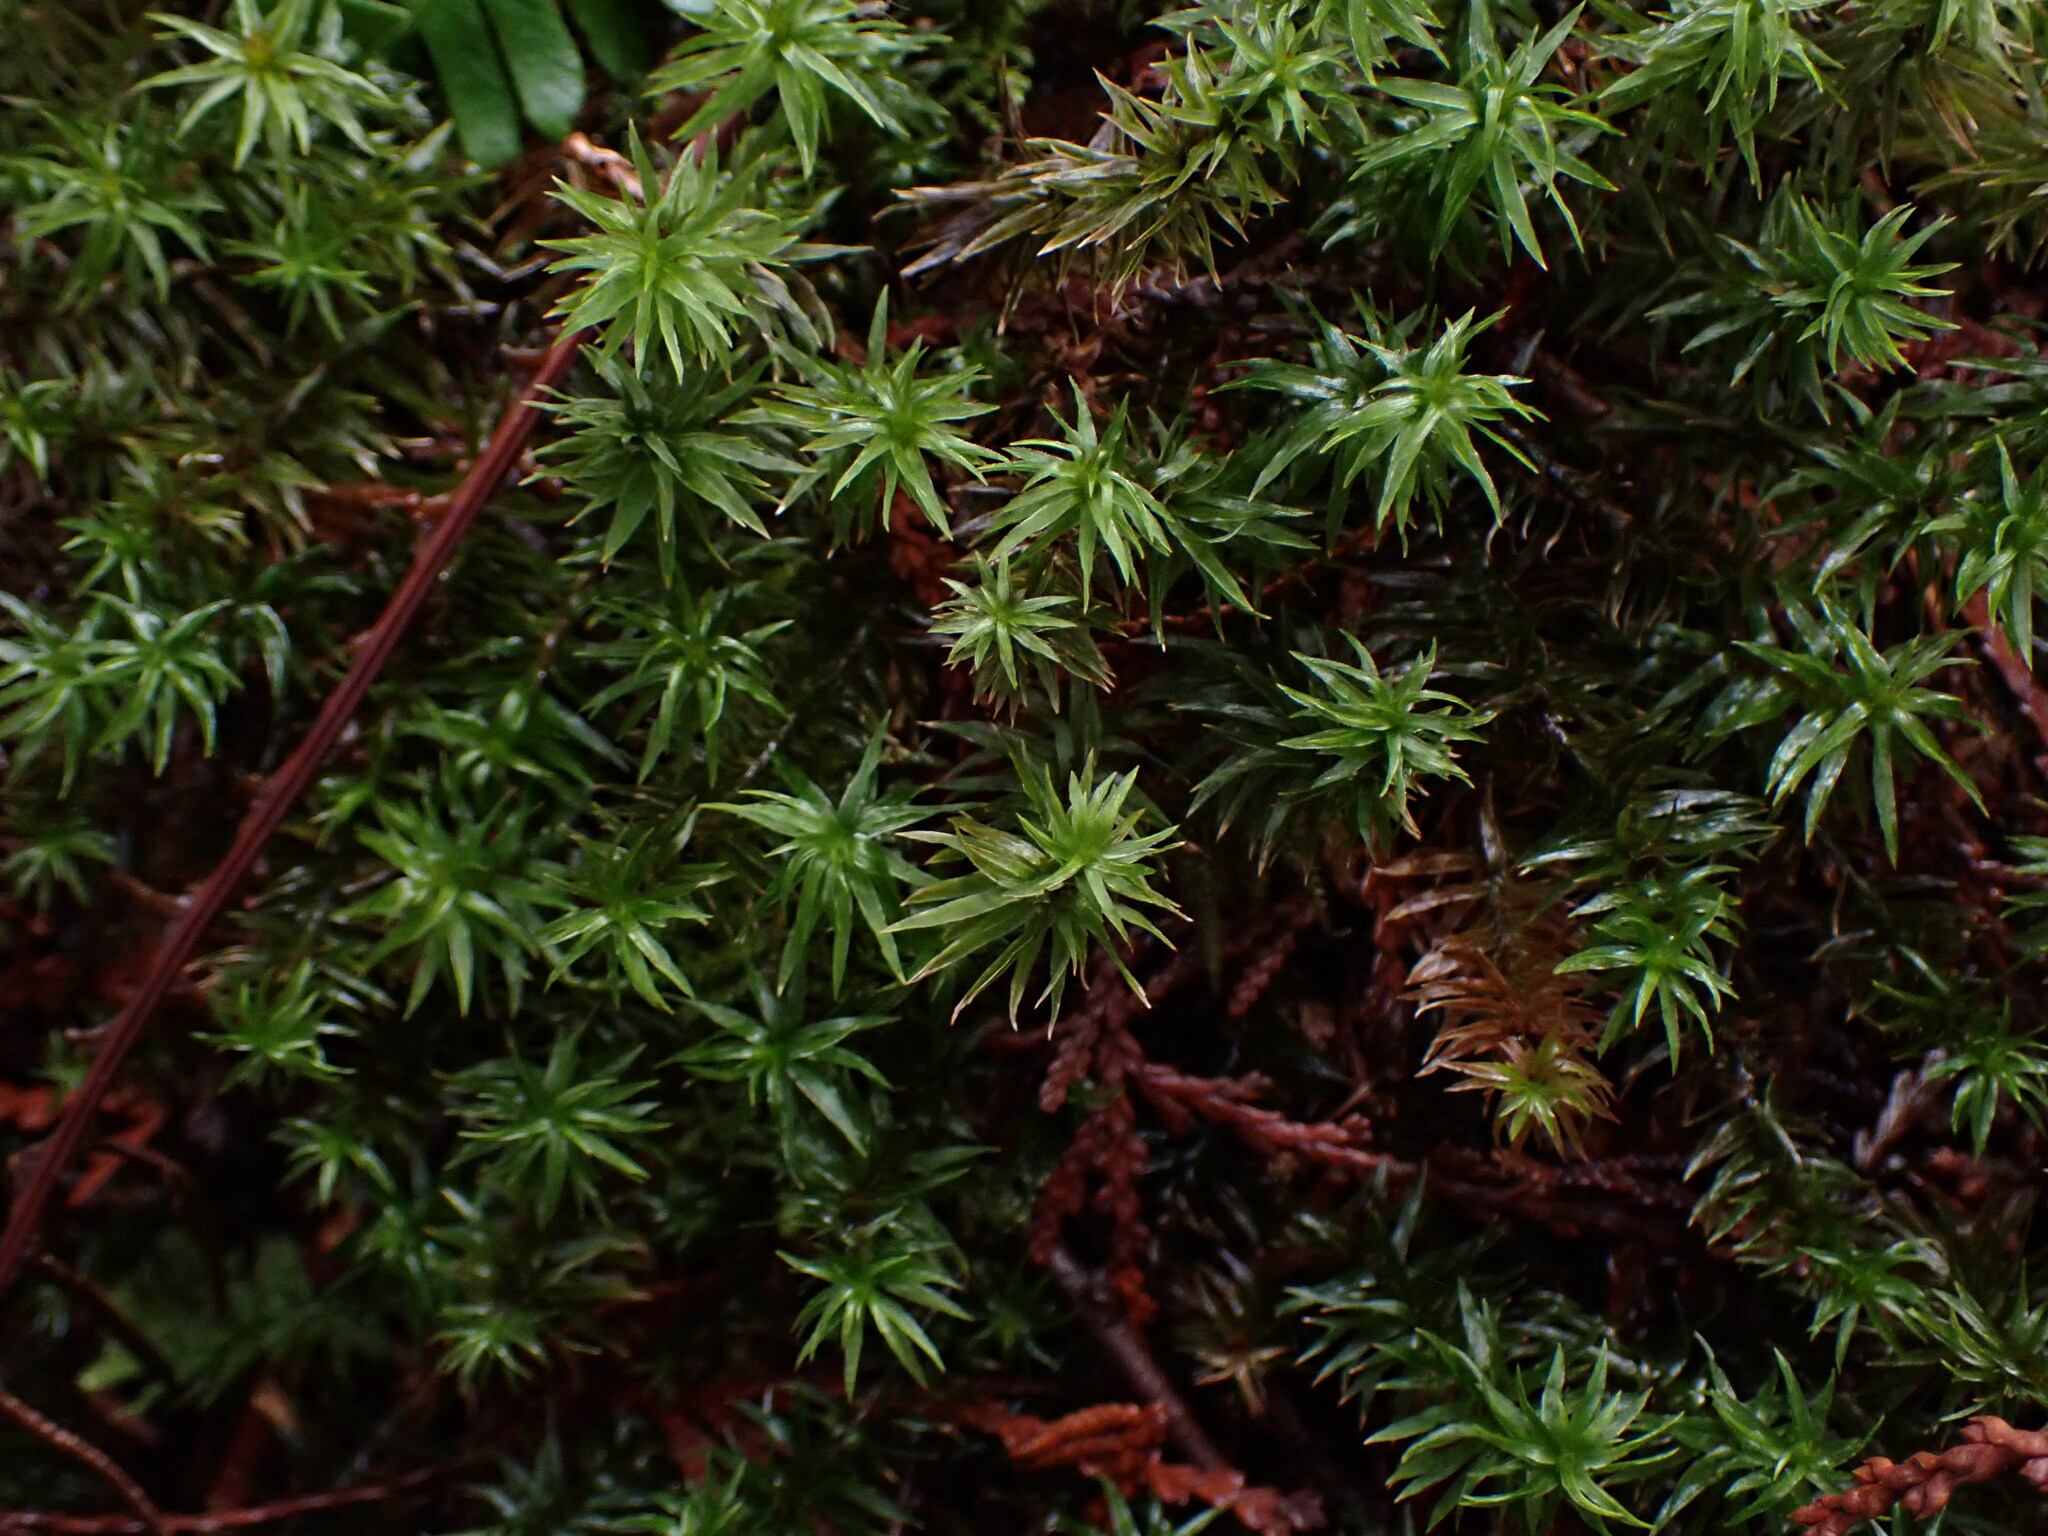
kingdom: Plantae
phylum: Bryophyta
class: Polytrichopsida
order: Polytrichales
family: Polytrichaceae
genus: Pogonatum
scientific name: Pogonatum contortum
